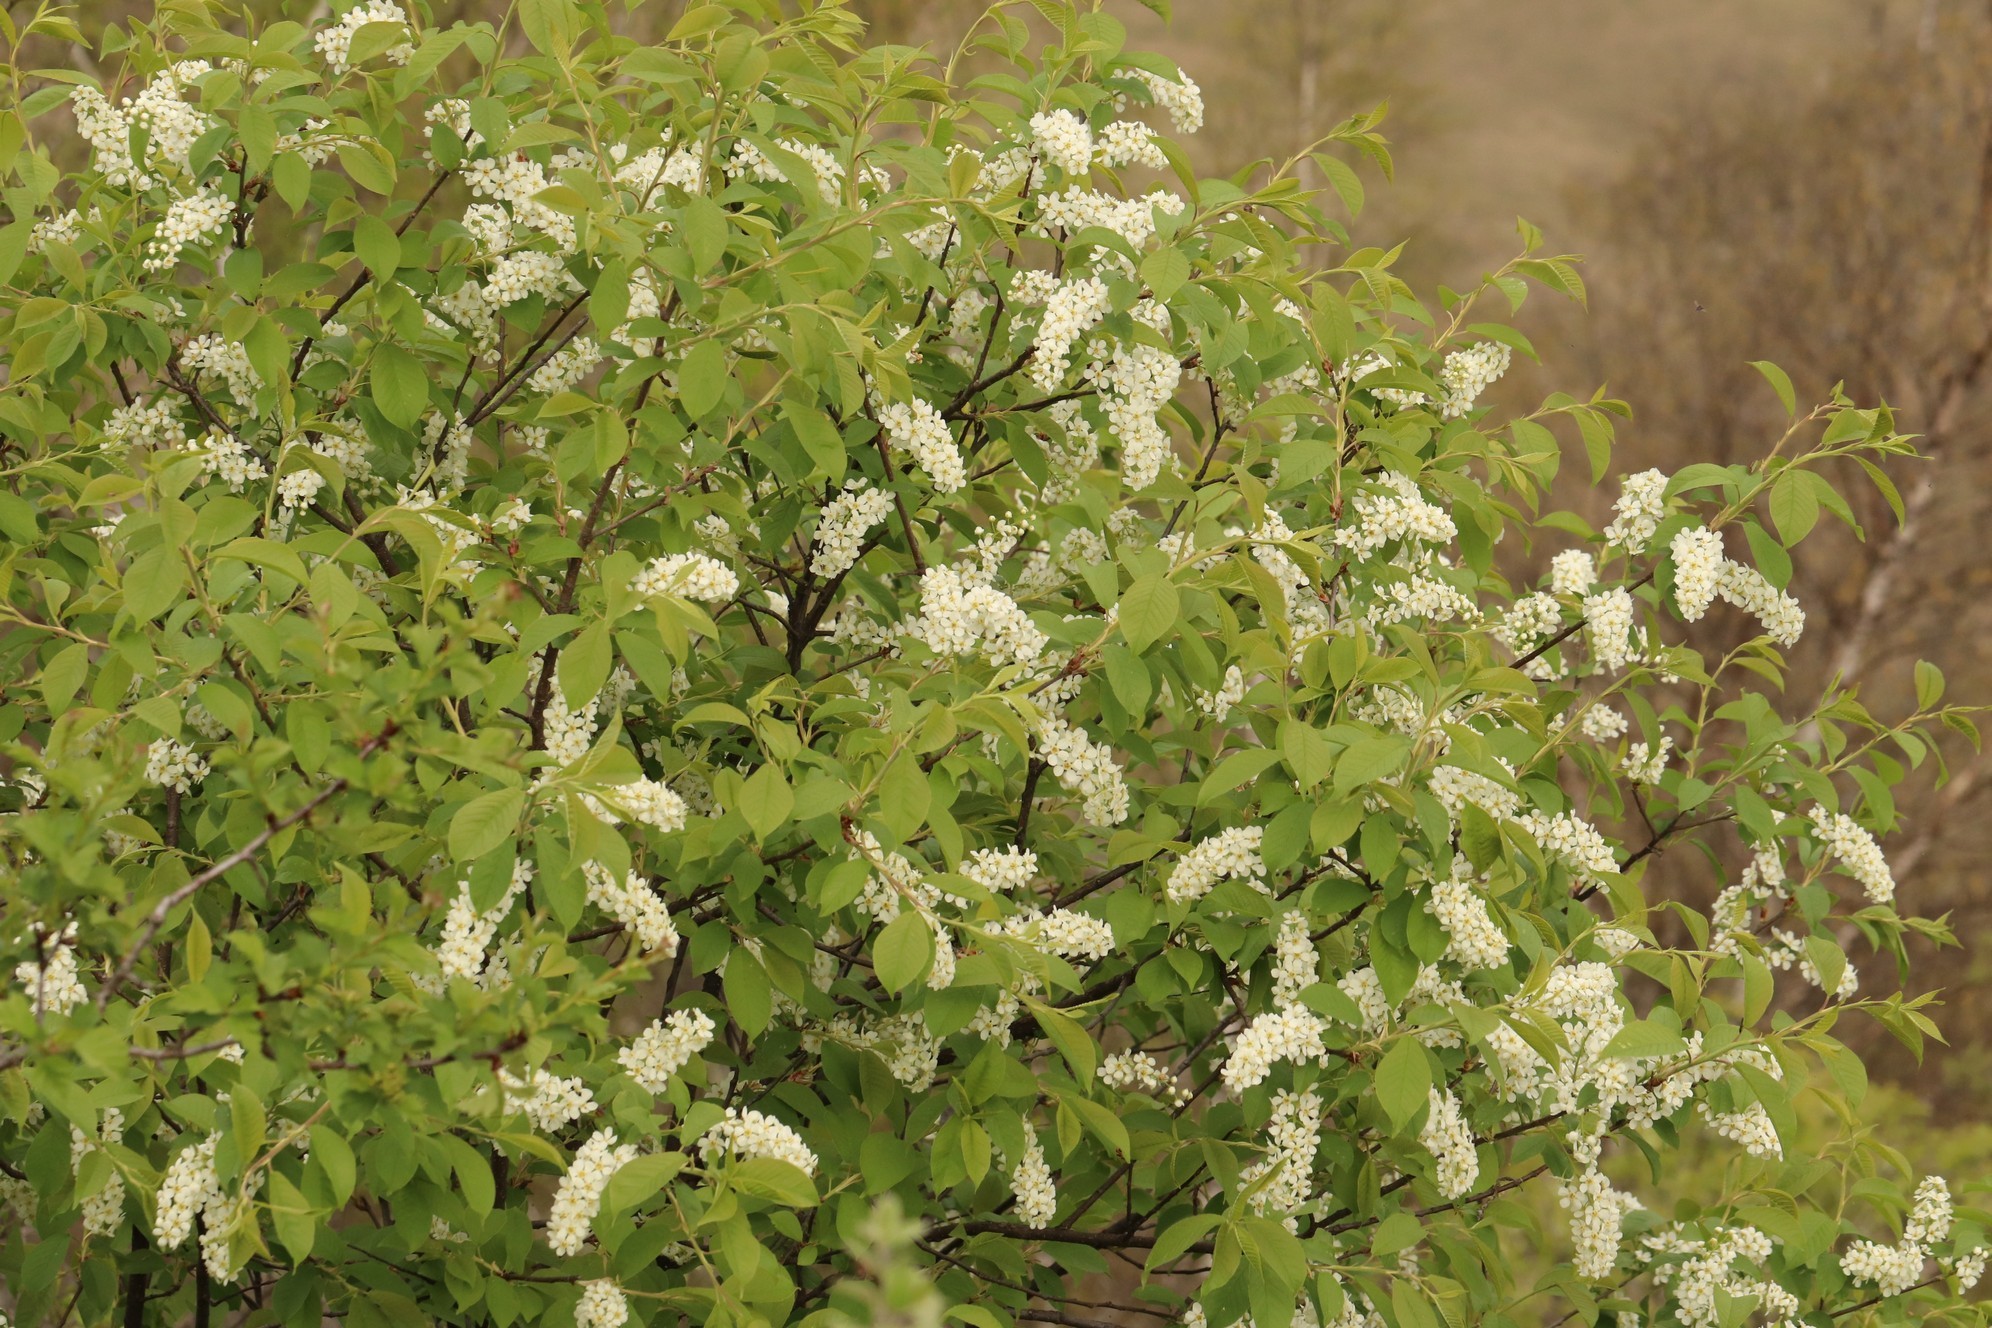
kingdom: Plantae
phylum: Tracheophyta
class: Magnoliopsida
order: Rosales
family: Rosaceae
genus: Prunus
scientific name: Prunus padus
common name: Bird cherry
